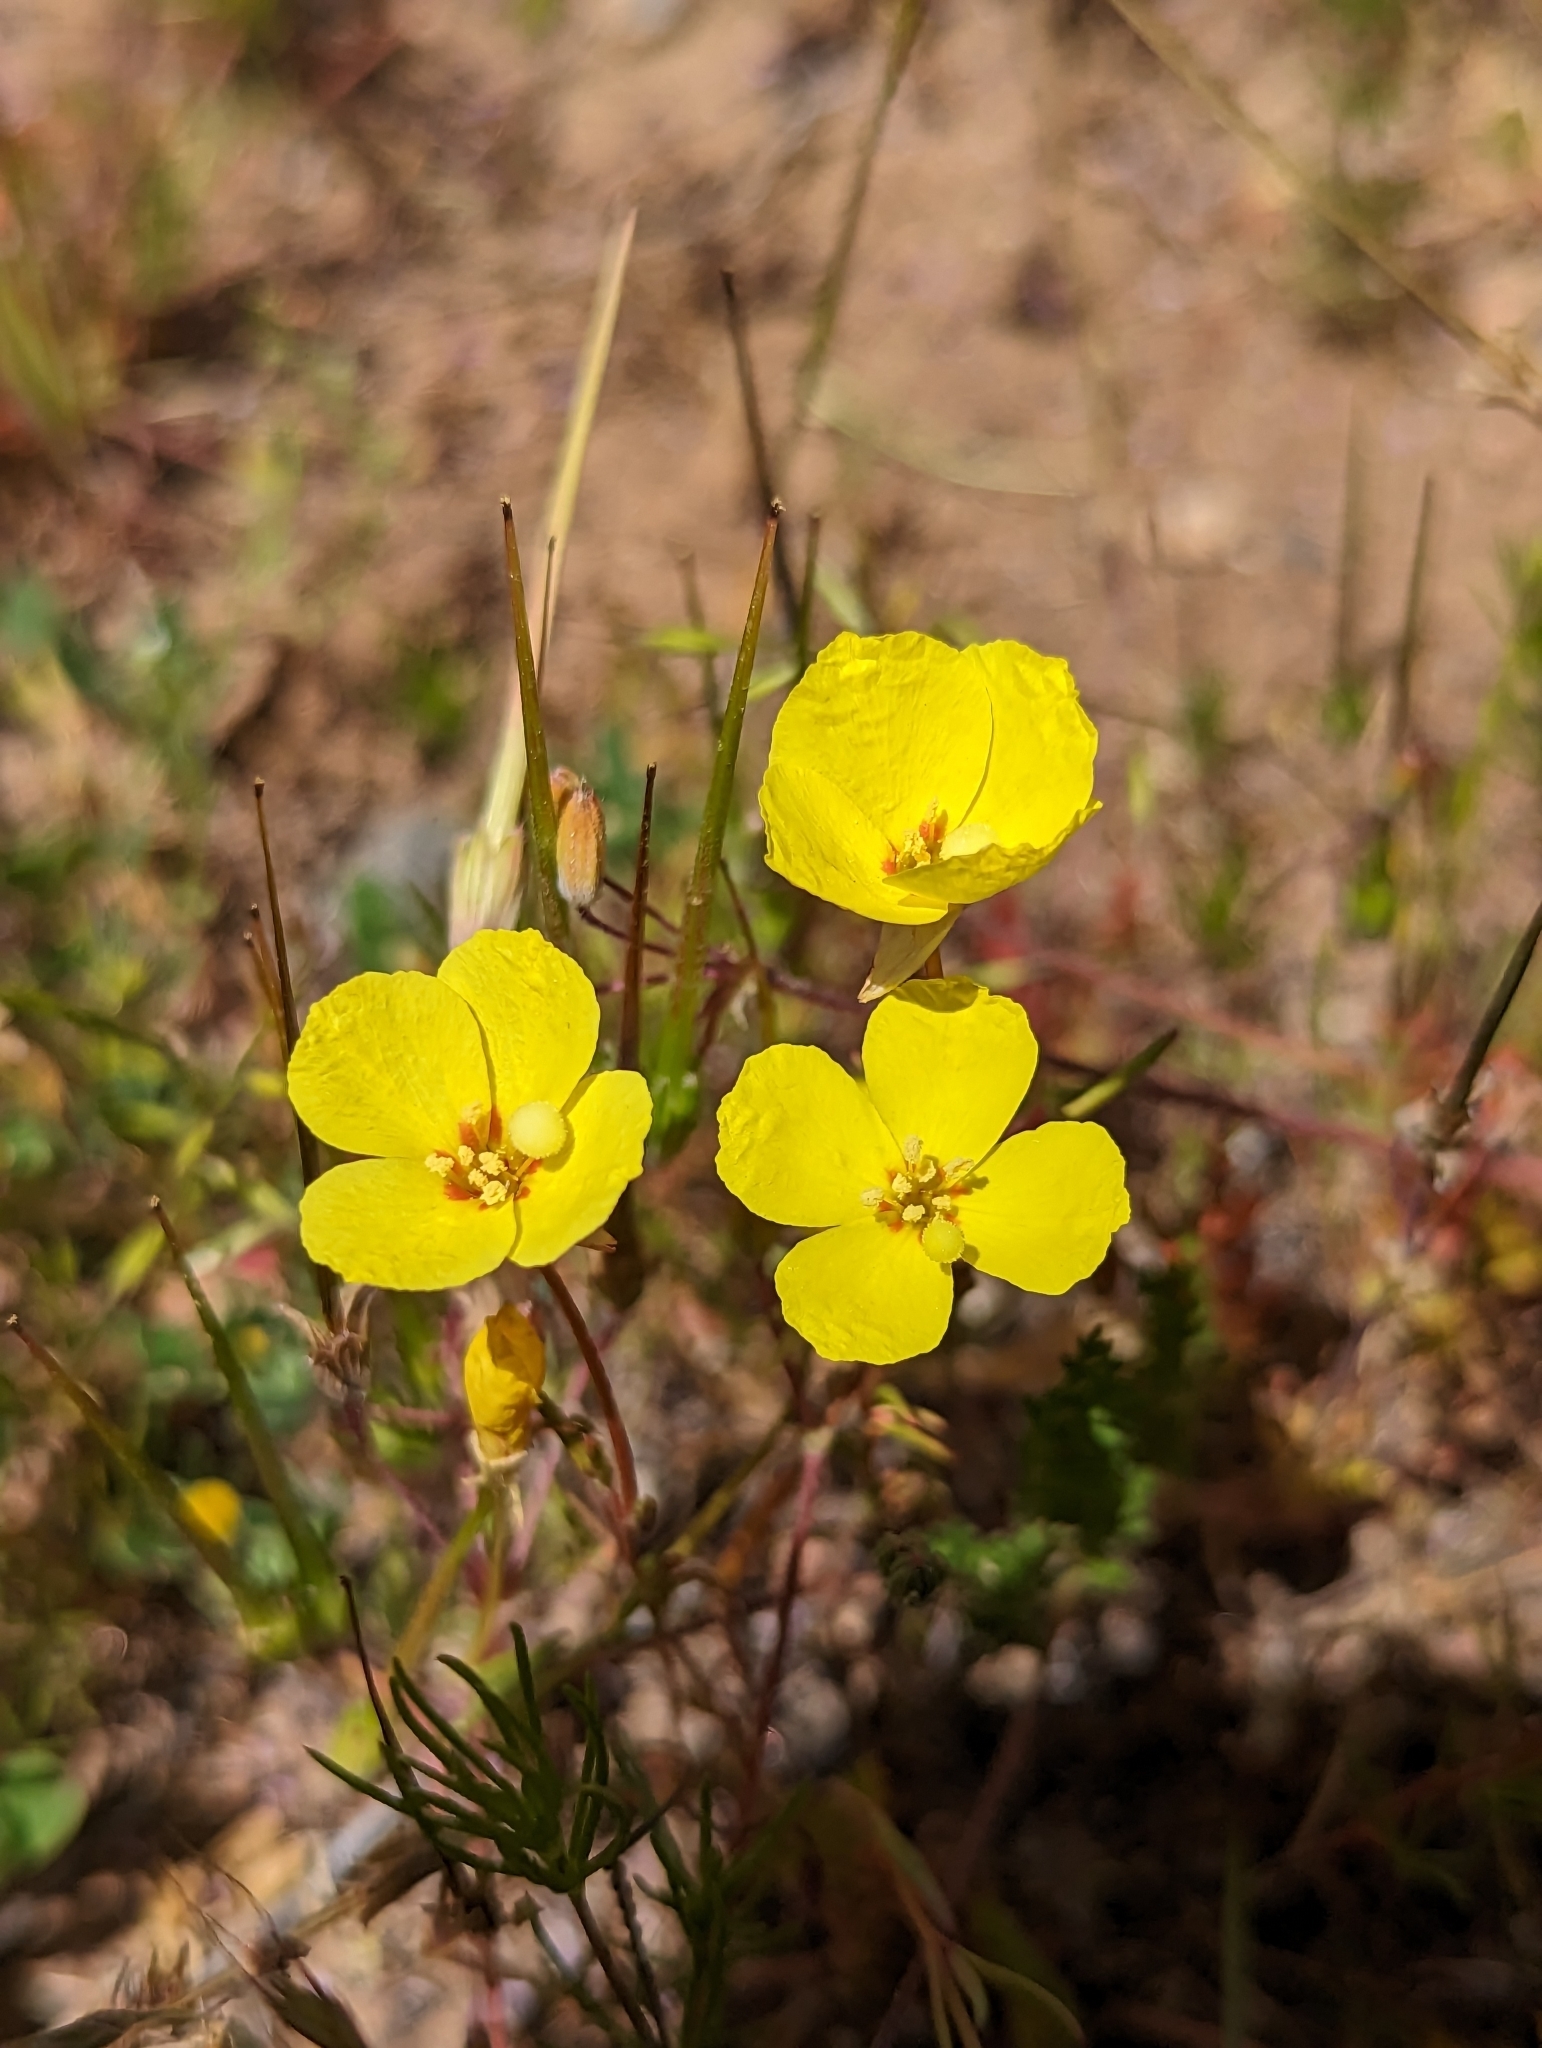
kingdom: Plantae
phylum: Tracheophyta
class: Magnoliopsida
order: Myrtales
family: Onagraceae
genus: Camissonia
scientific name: Camissonia campestris
